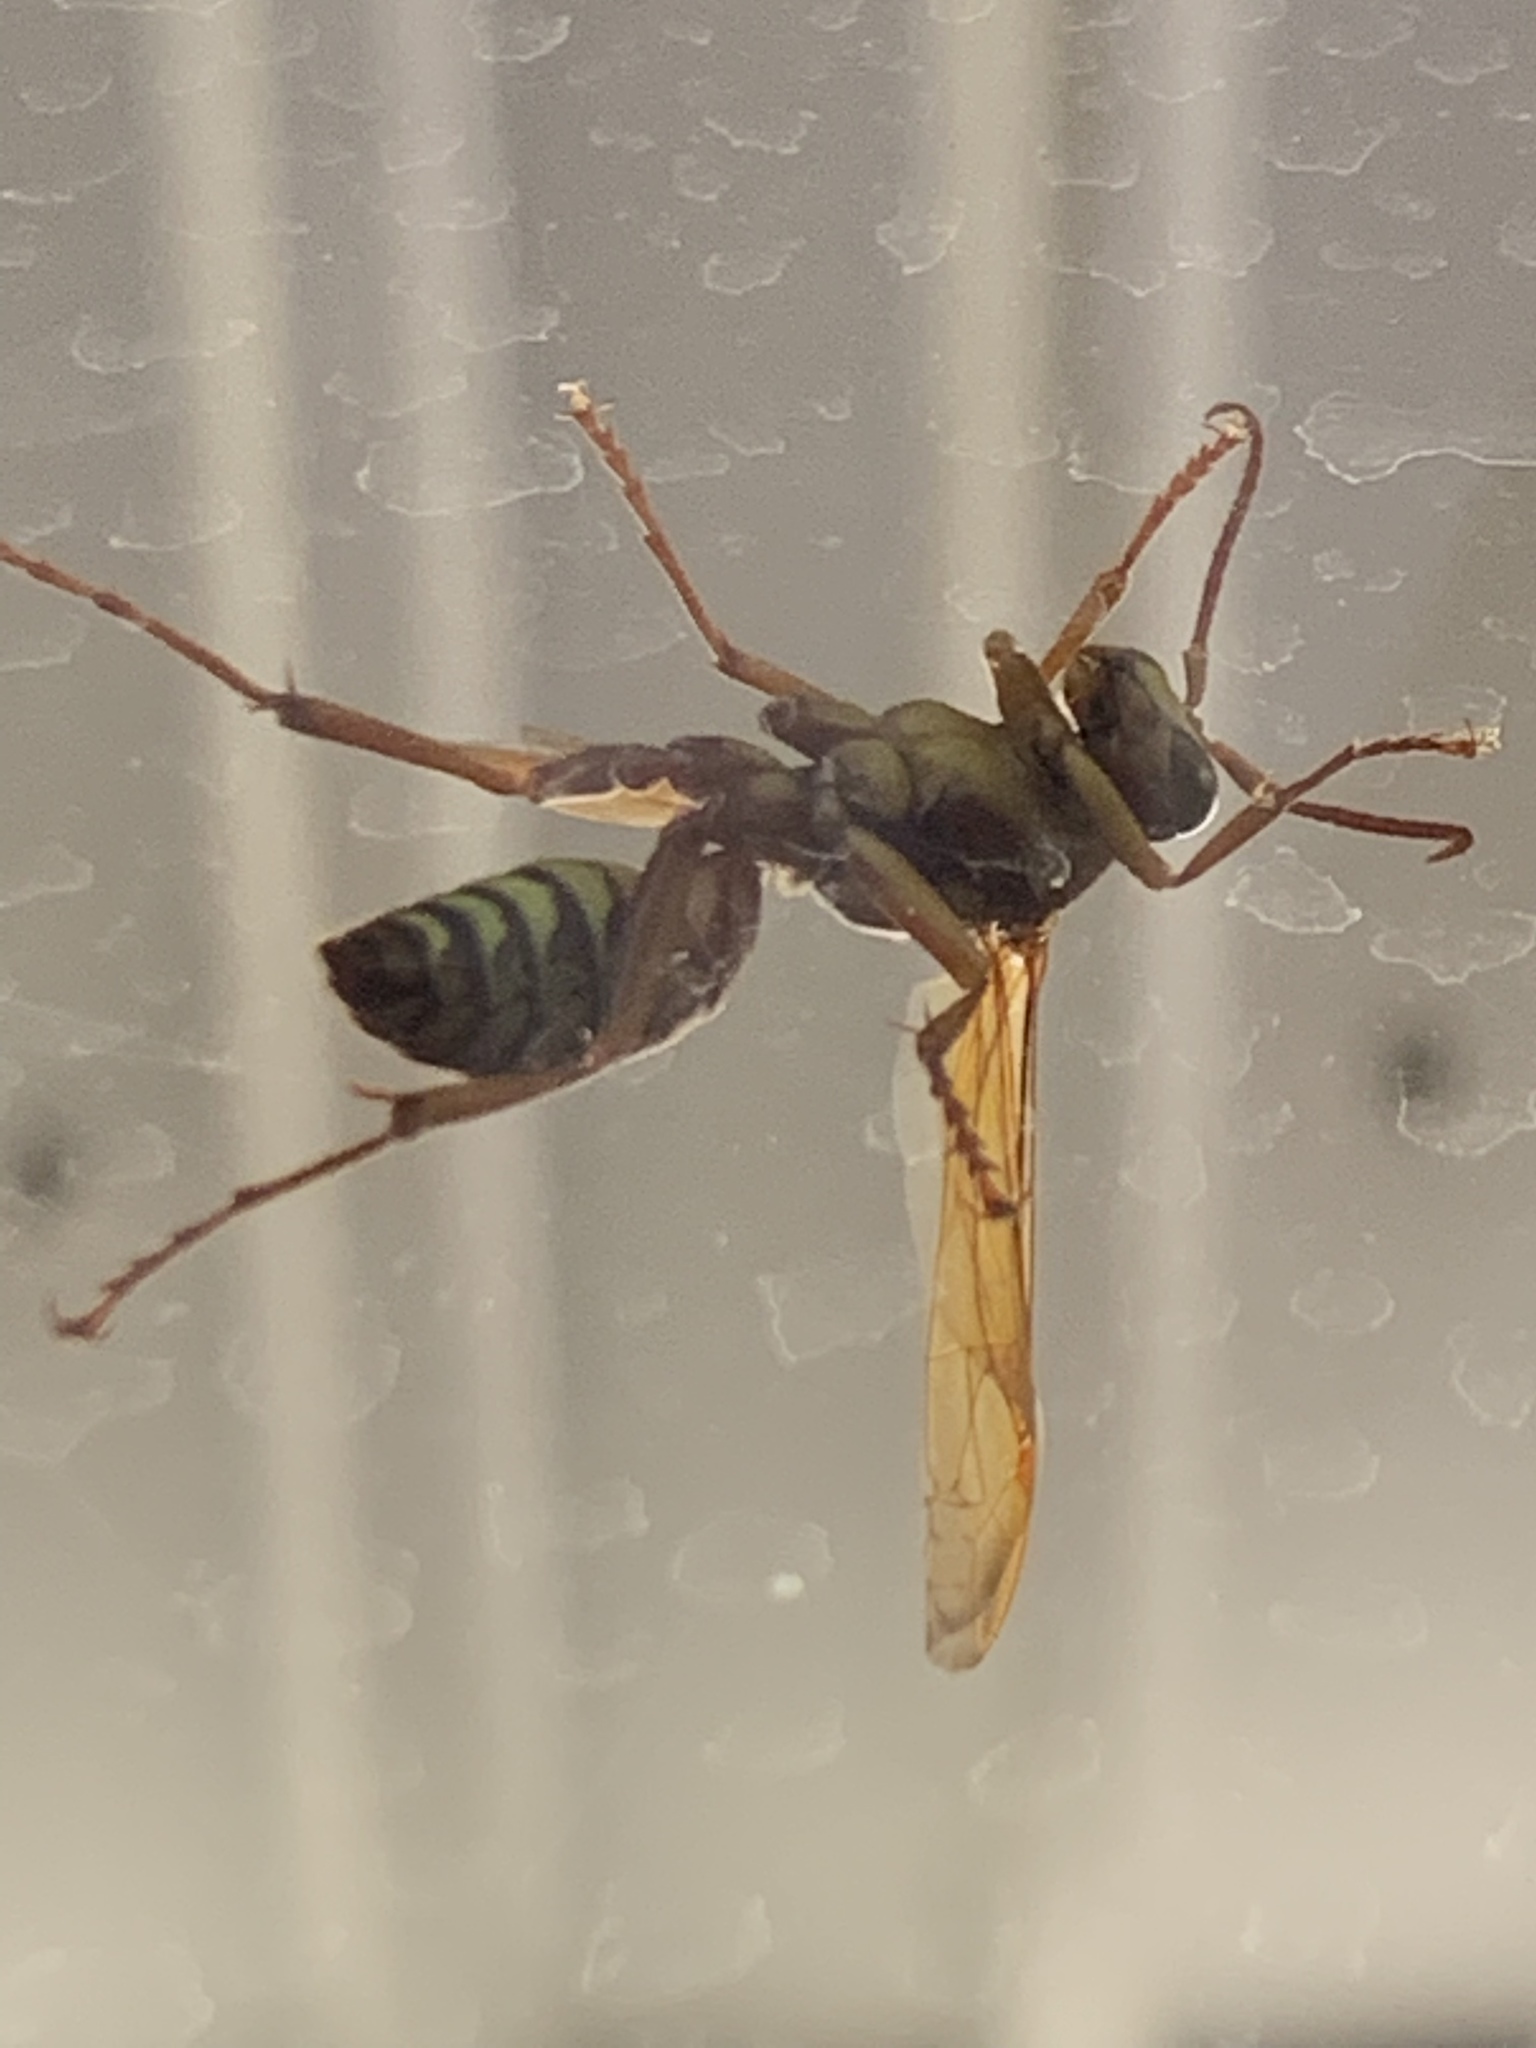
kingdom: Animalia
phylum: Arthropoda
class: Insecta
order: Hymenoptera
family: Vespidae
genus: Fuscopolistes
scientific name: Fuscopolistes
